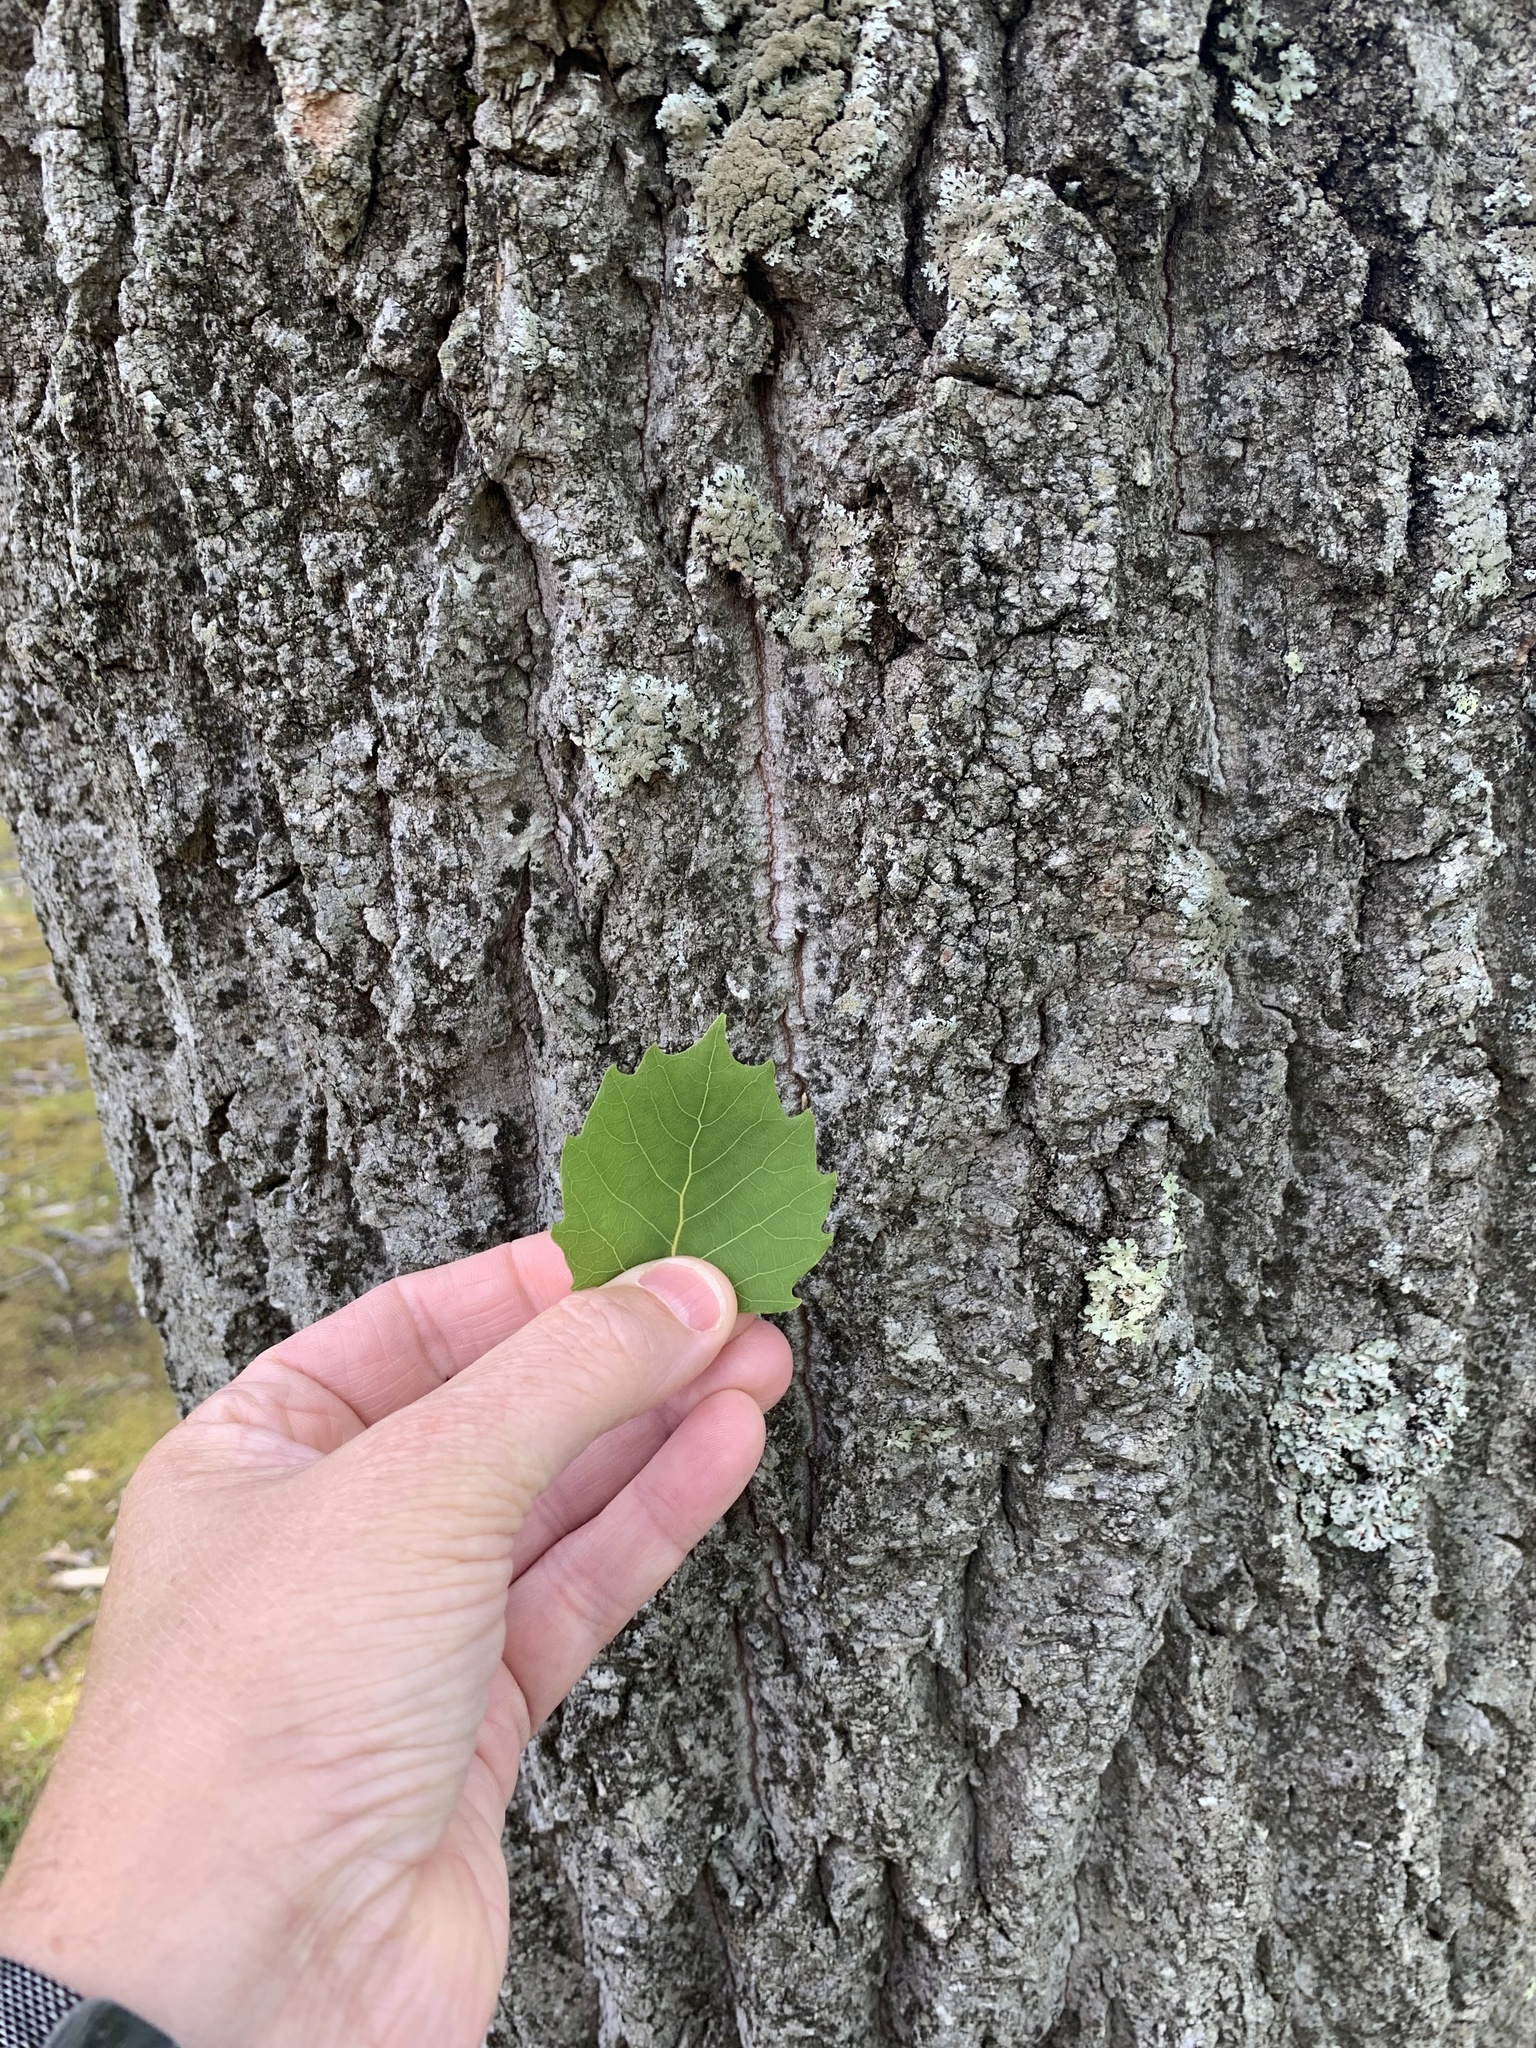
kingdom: Plantae
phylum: Tracheophyta
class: Magnoliopsida
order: Malpighiales
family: Salicaceae
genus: Populus
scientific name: Populus grandidentata
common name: Bigtooth aspen
